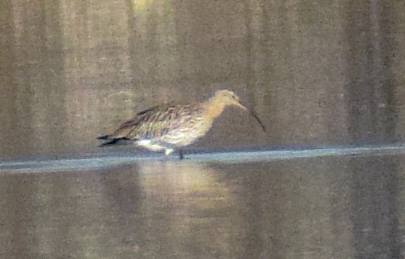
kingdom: Animalia
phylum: Chordata
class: Aves
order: Charadriiformes
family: Scolopacidae
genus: Numenius
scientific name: Numenius arquata
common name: Eurasian curlew
